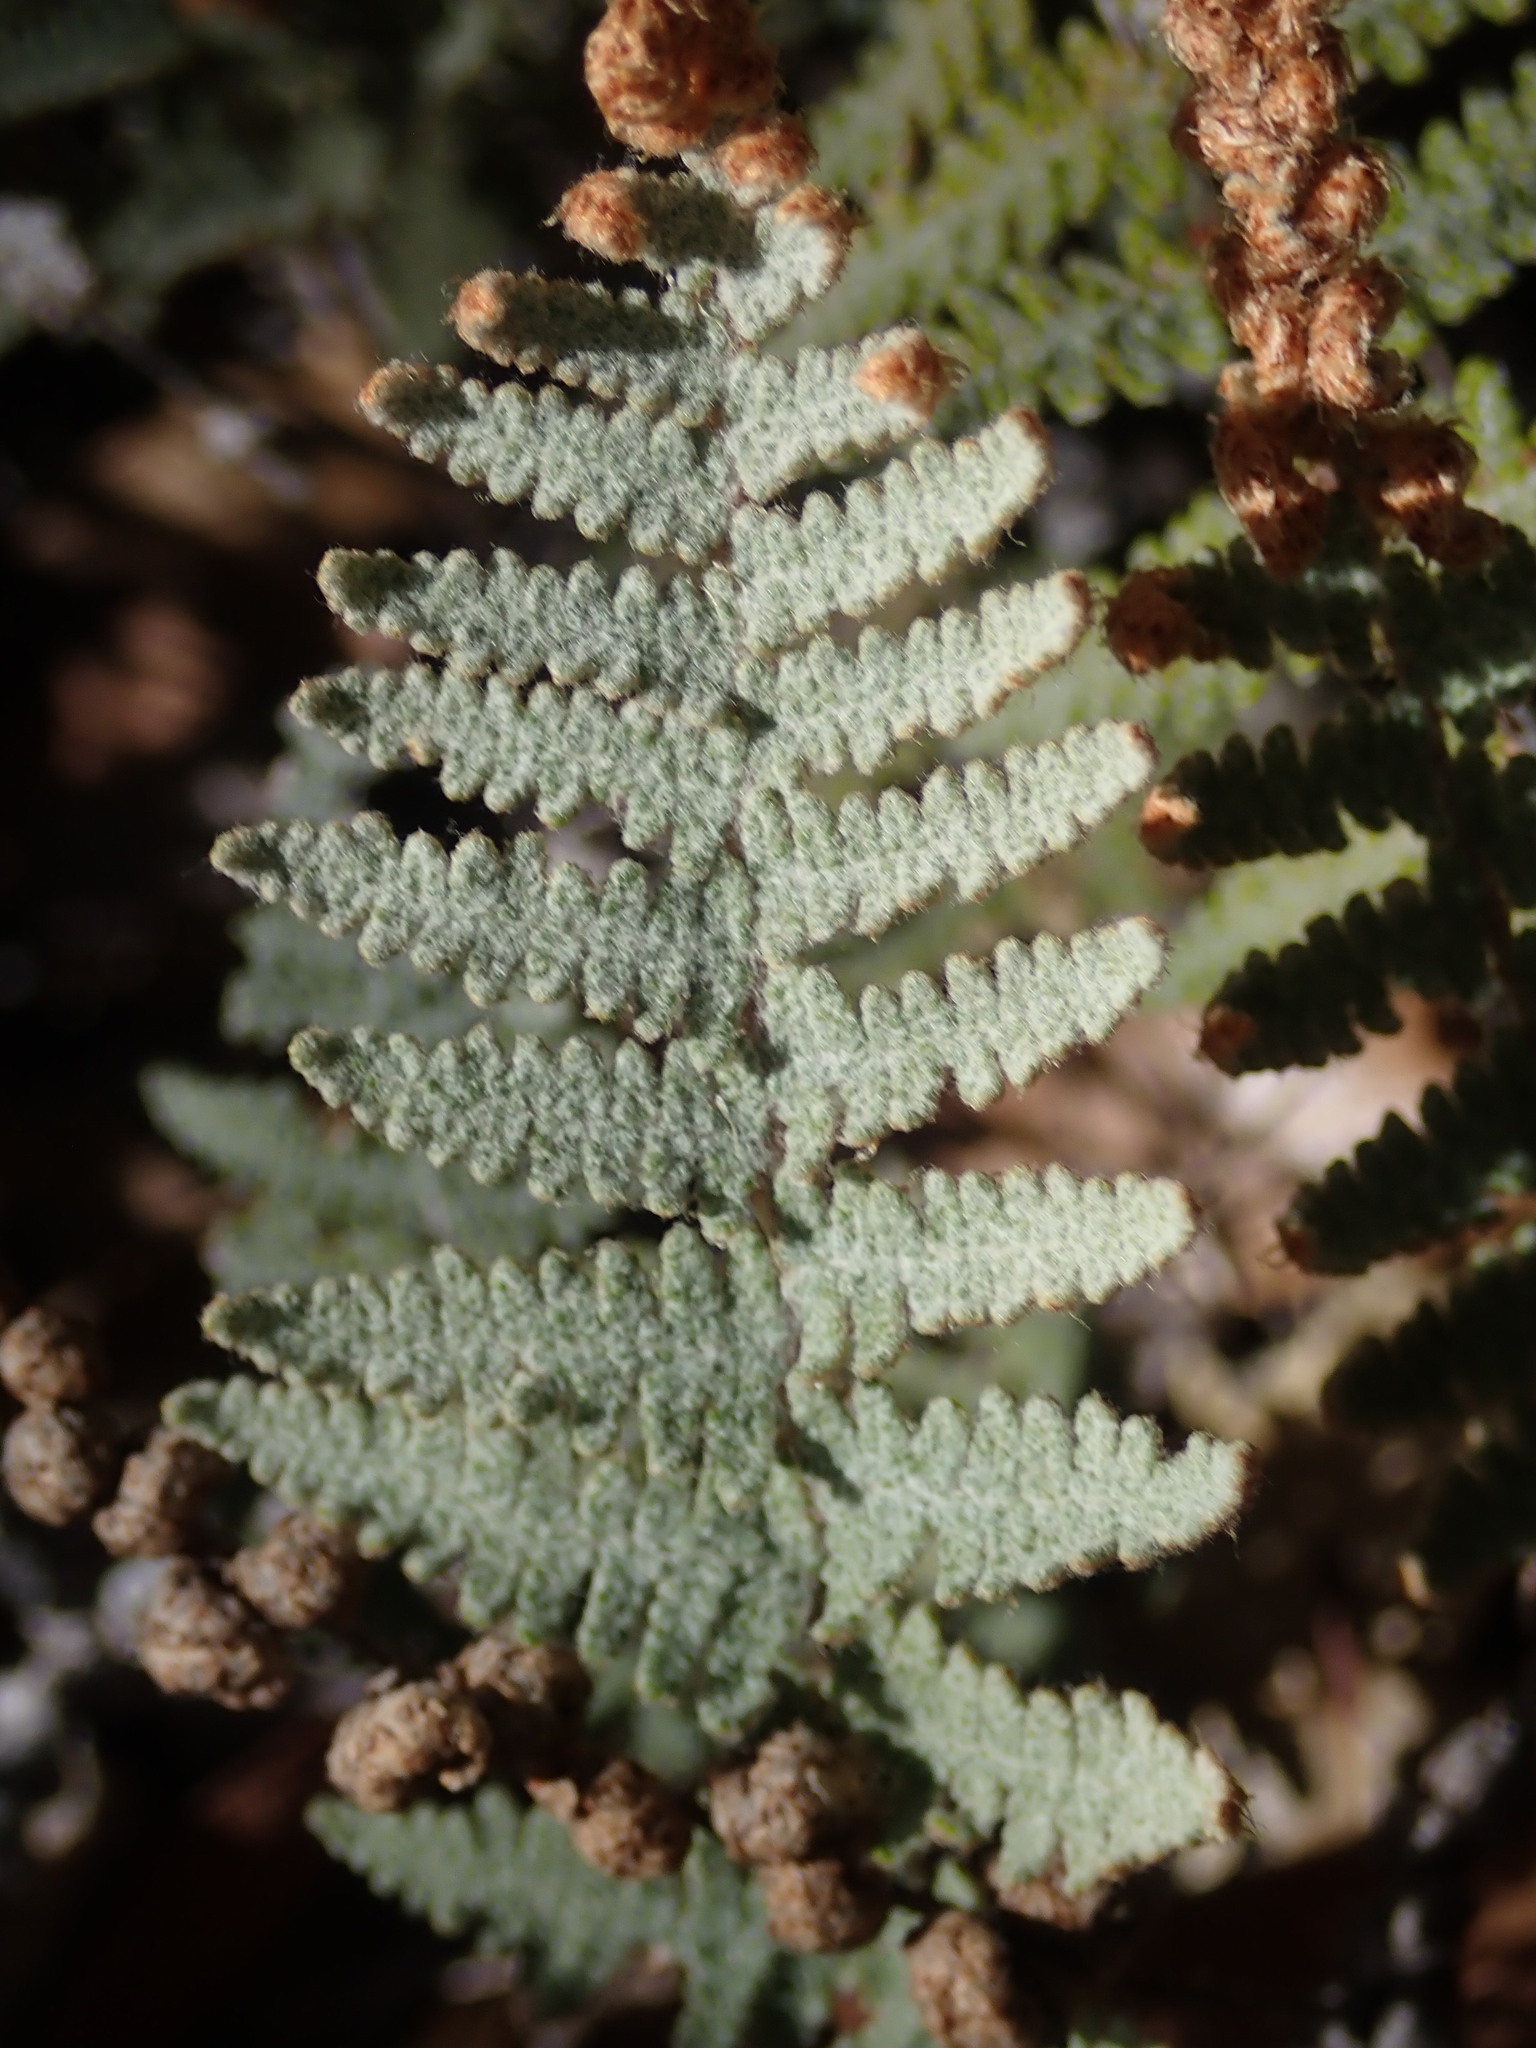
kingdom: Plantae
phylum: Tracheophyta
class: Polypodiopsida
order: Polypodiales
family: Pteridaceae
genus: Myriopteris
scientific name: Myriopteris lindheimeri
